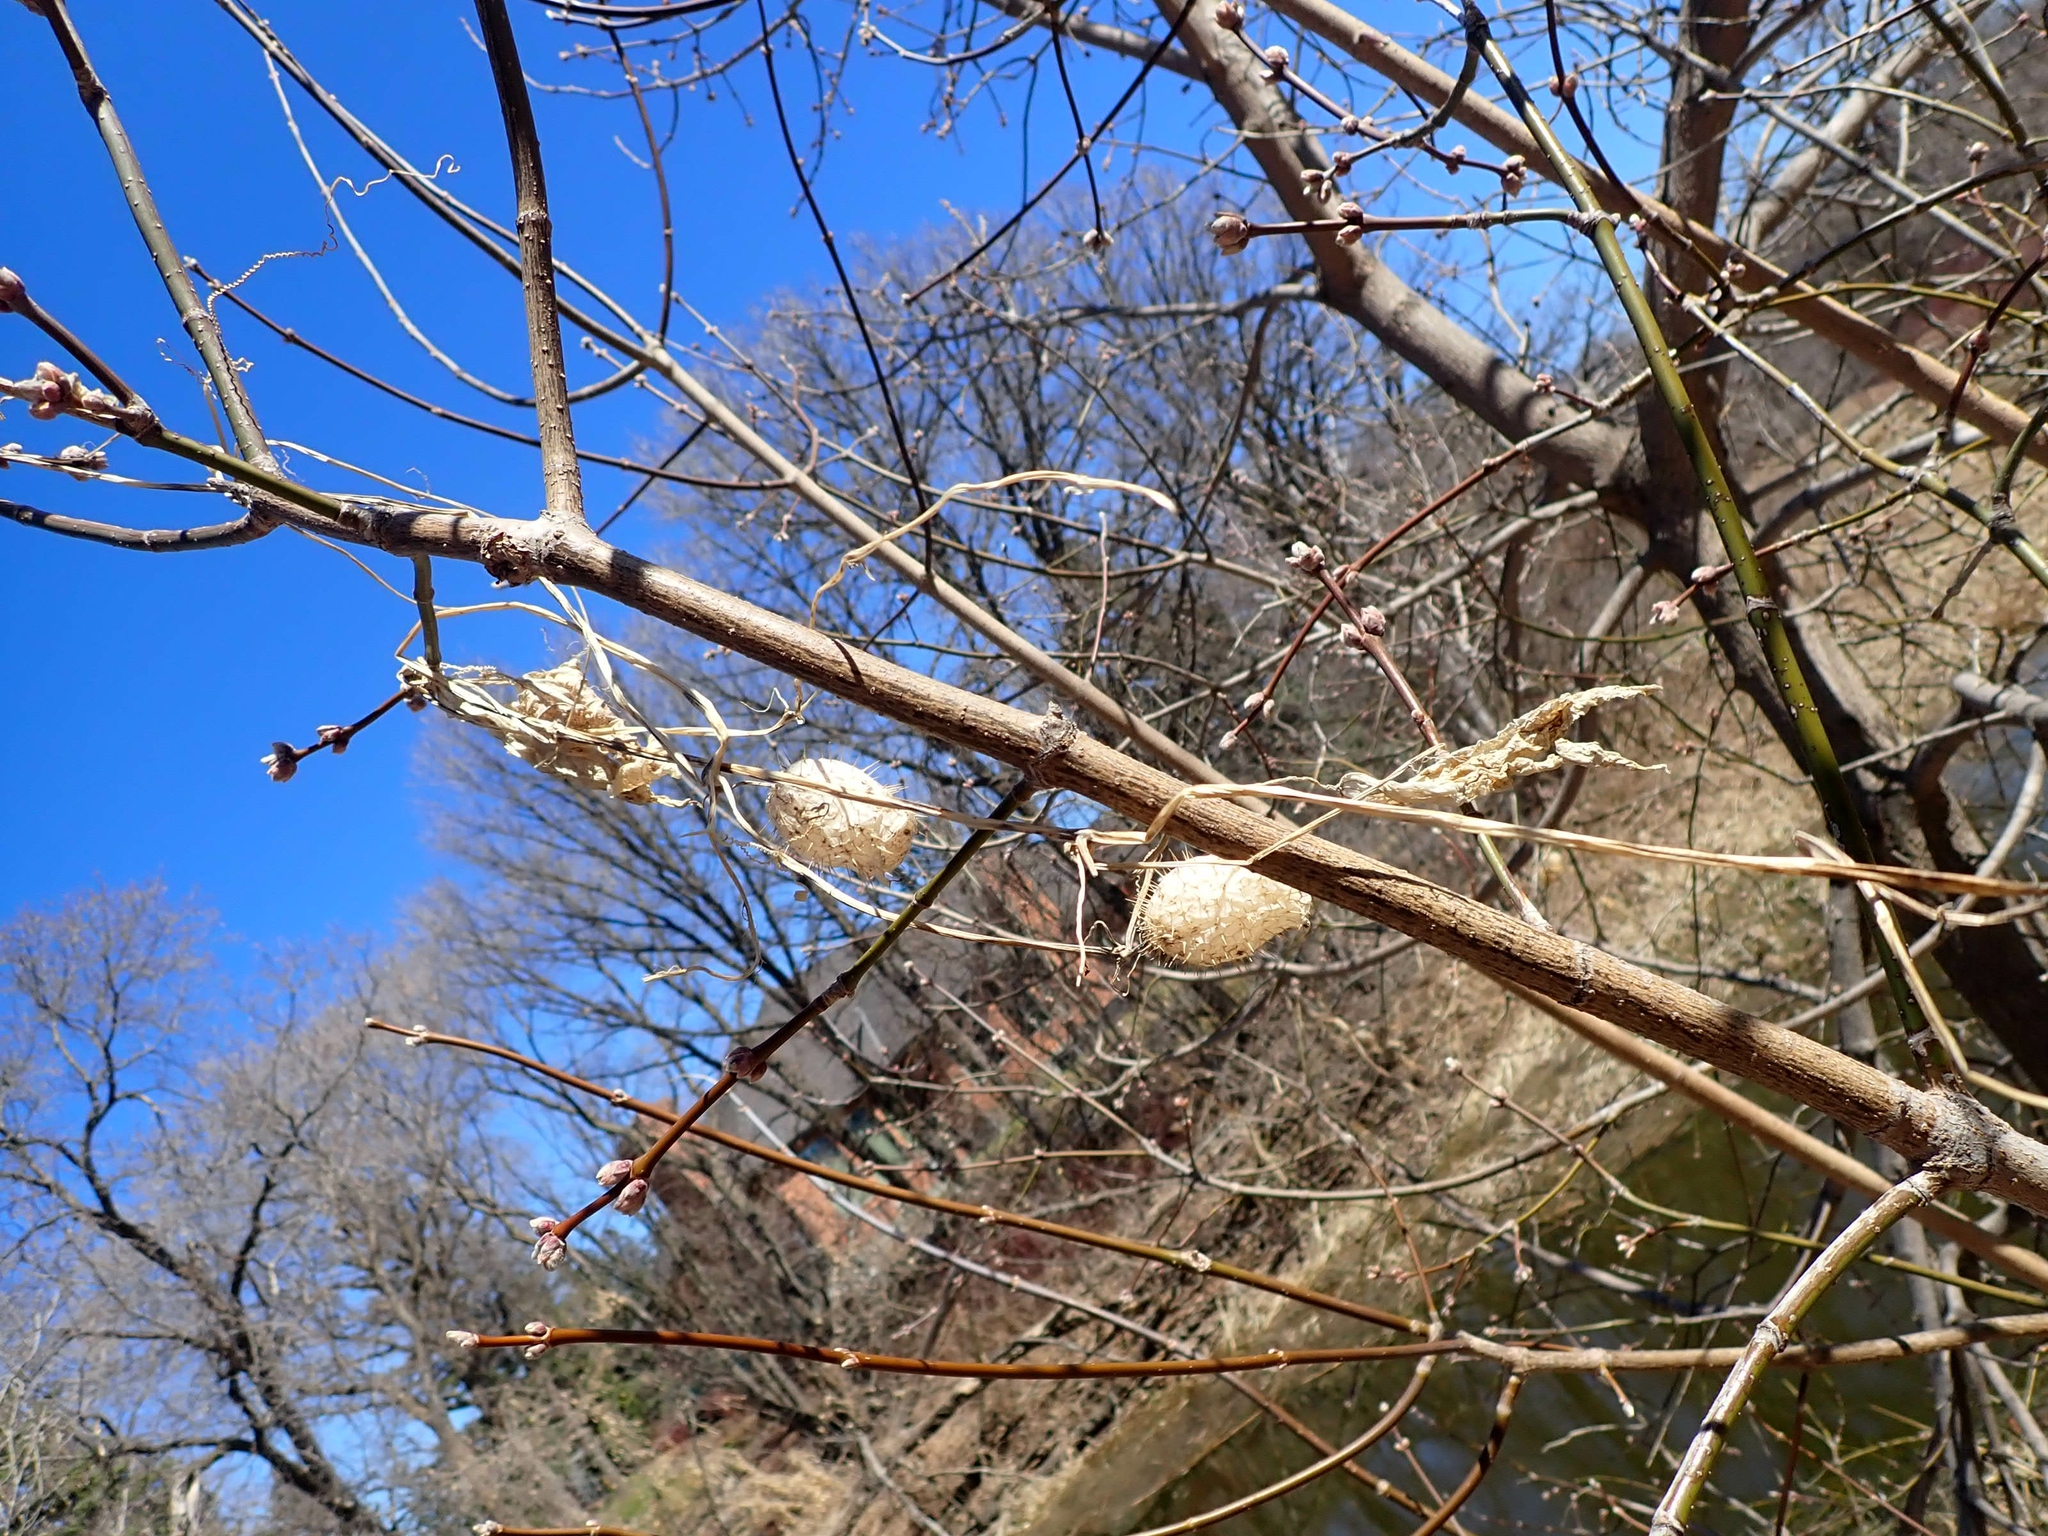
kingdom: Plantae
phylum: Tracheophyta
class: Magnoliopsida
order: Cucurbitales
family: Cucurbitaceae
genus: Echinocystis
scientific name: Echinocystis lobata
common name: Wild cucumber
